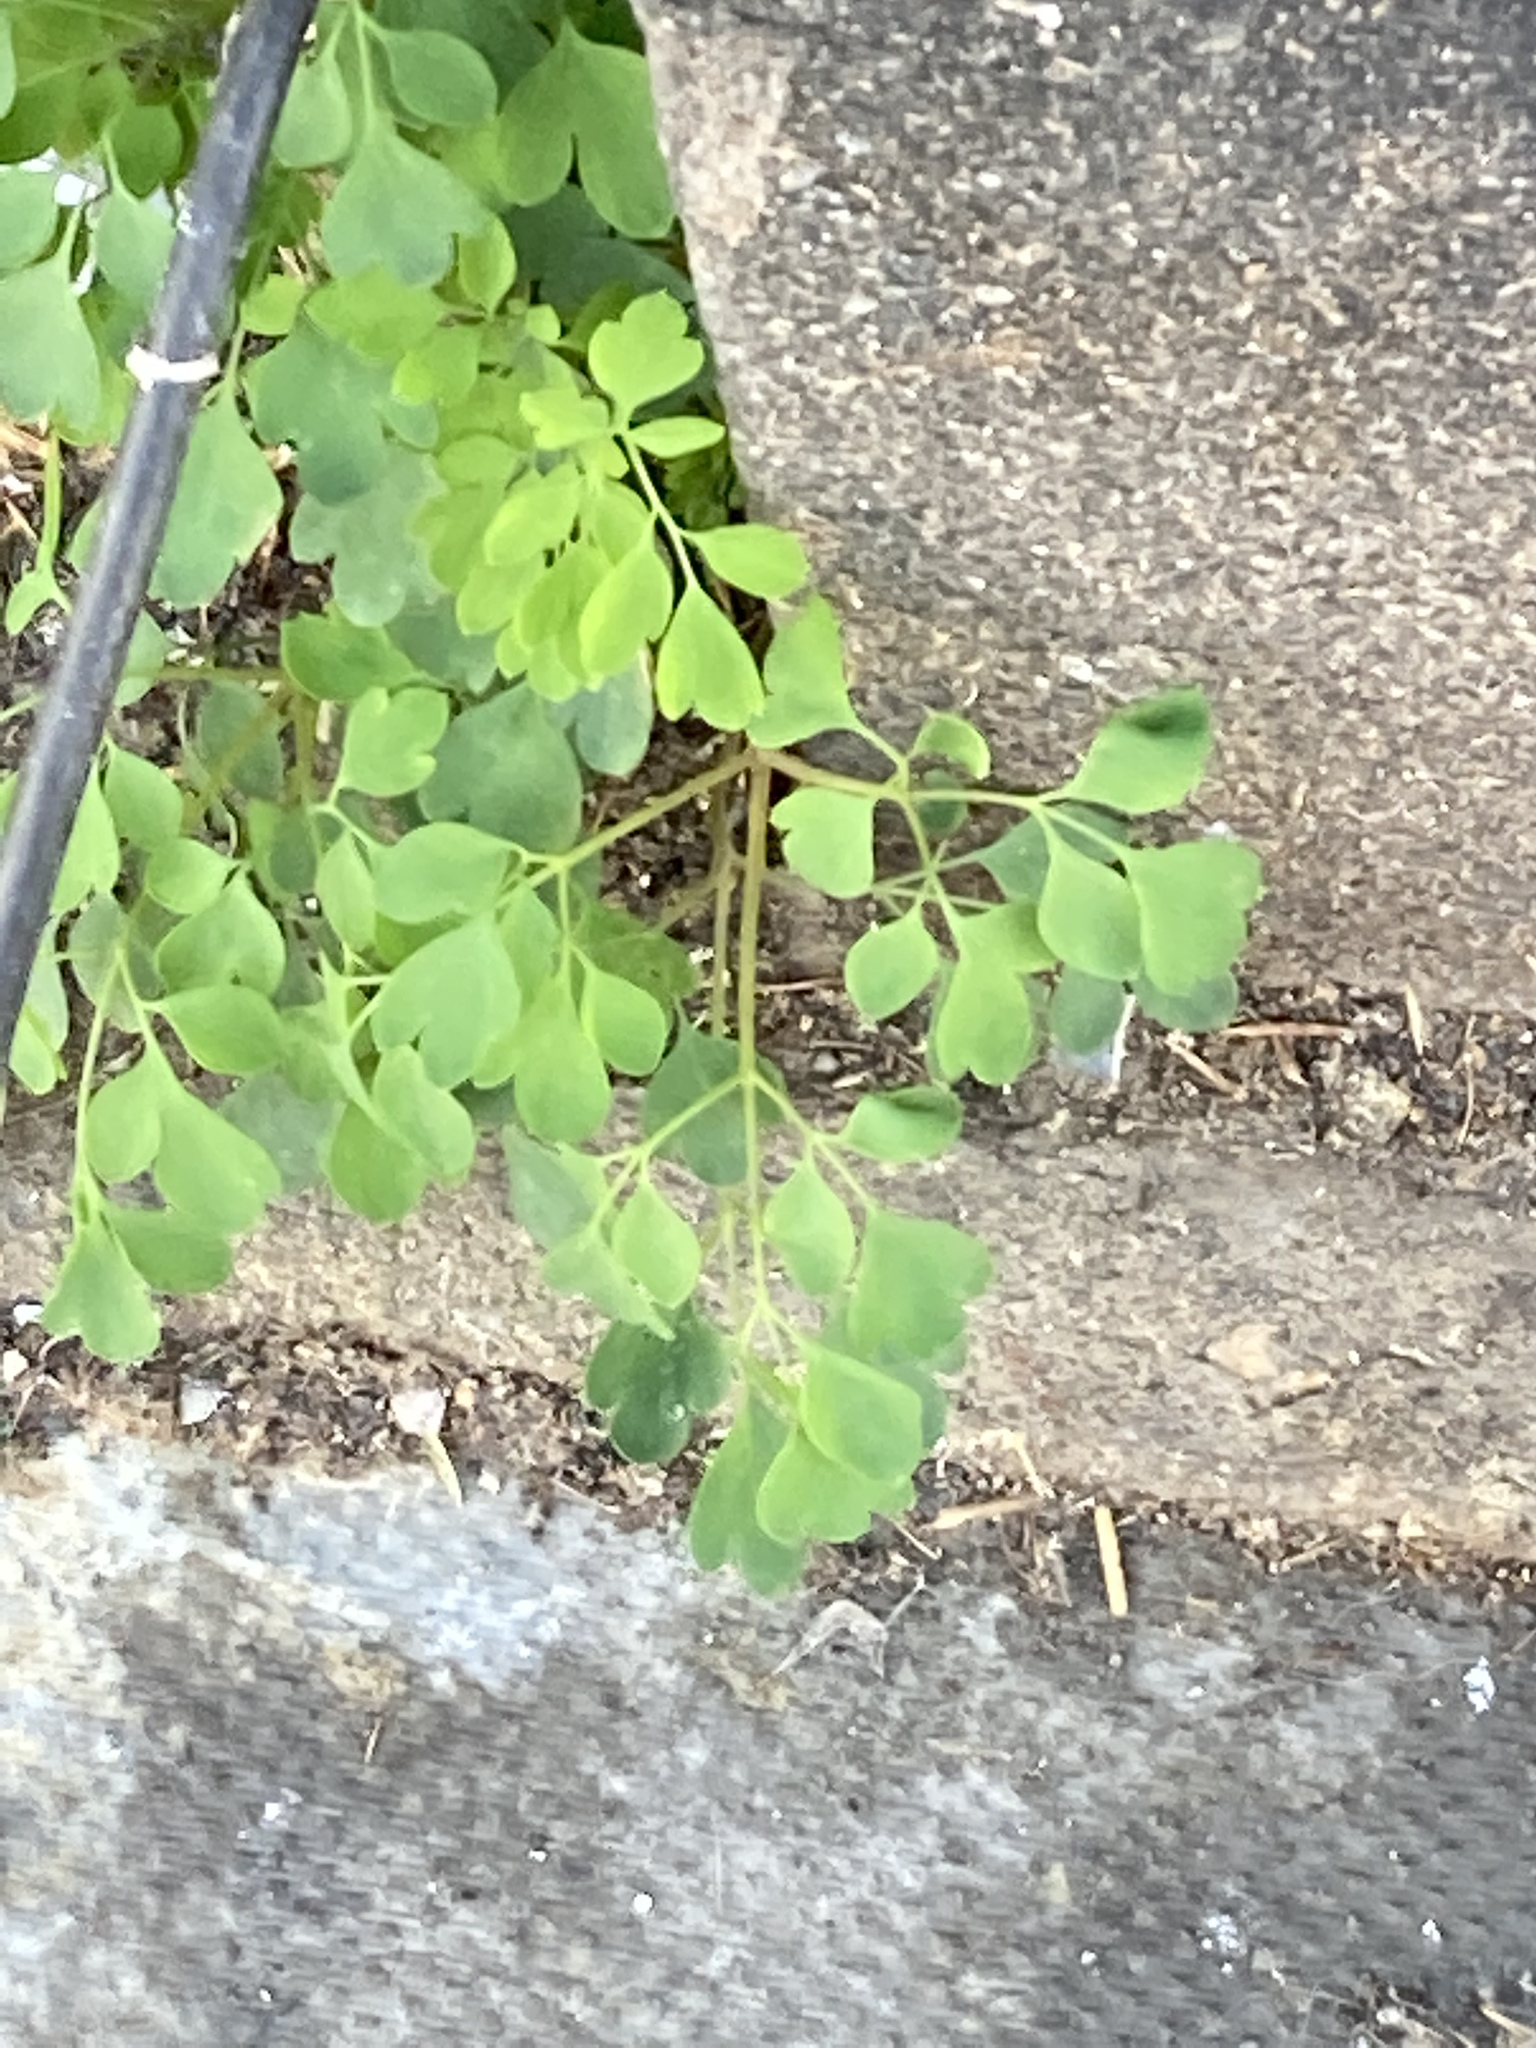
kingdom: Plantae
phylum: Tracheophyta
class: Magnoliopsida
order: Ranunculales
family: Papaveraceae
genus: Pseudofumaria
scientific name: Pseudofumaria lutea
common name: Yellow corydalis
